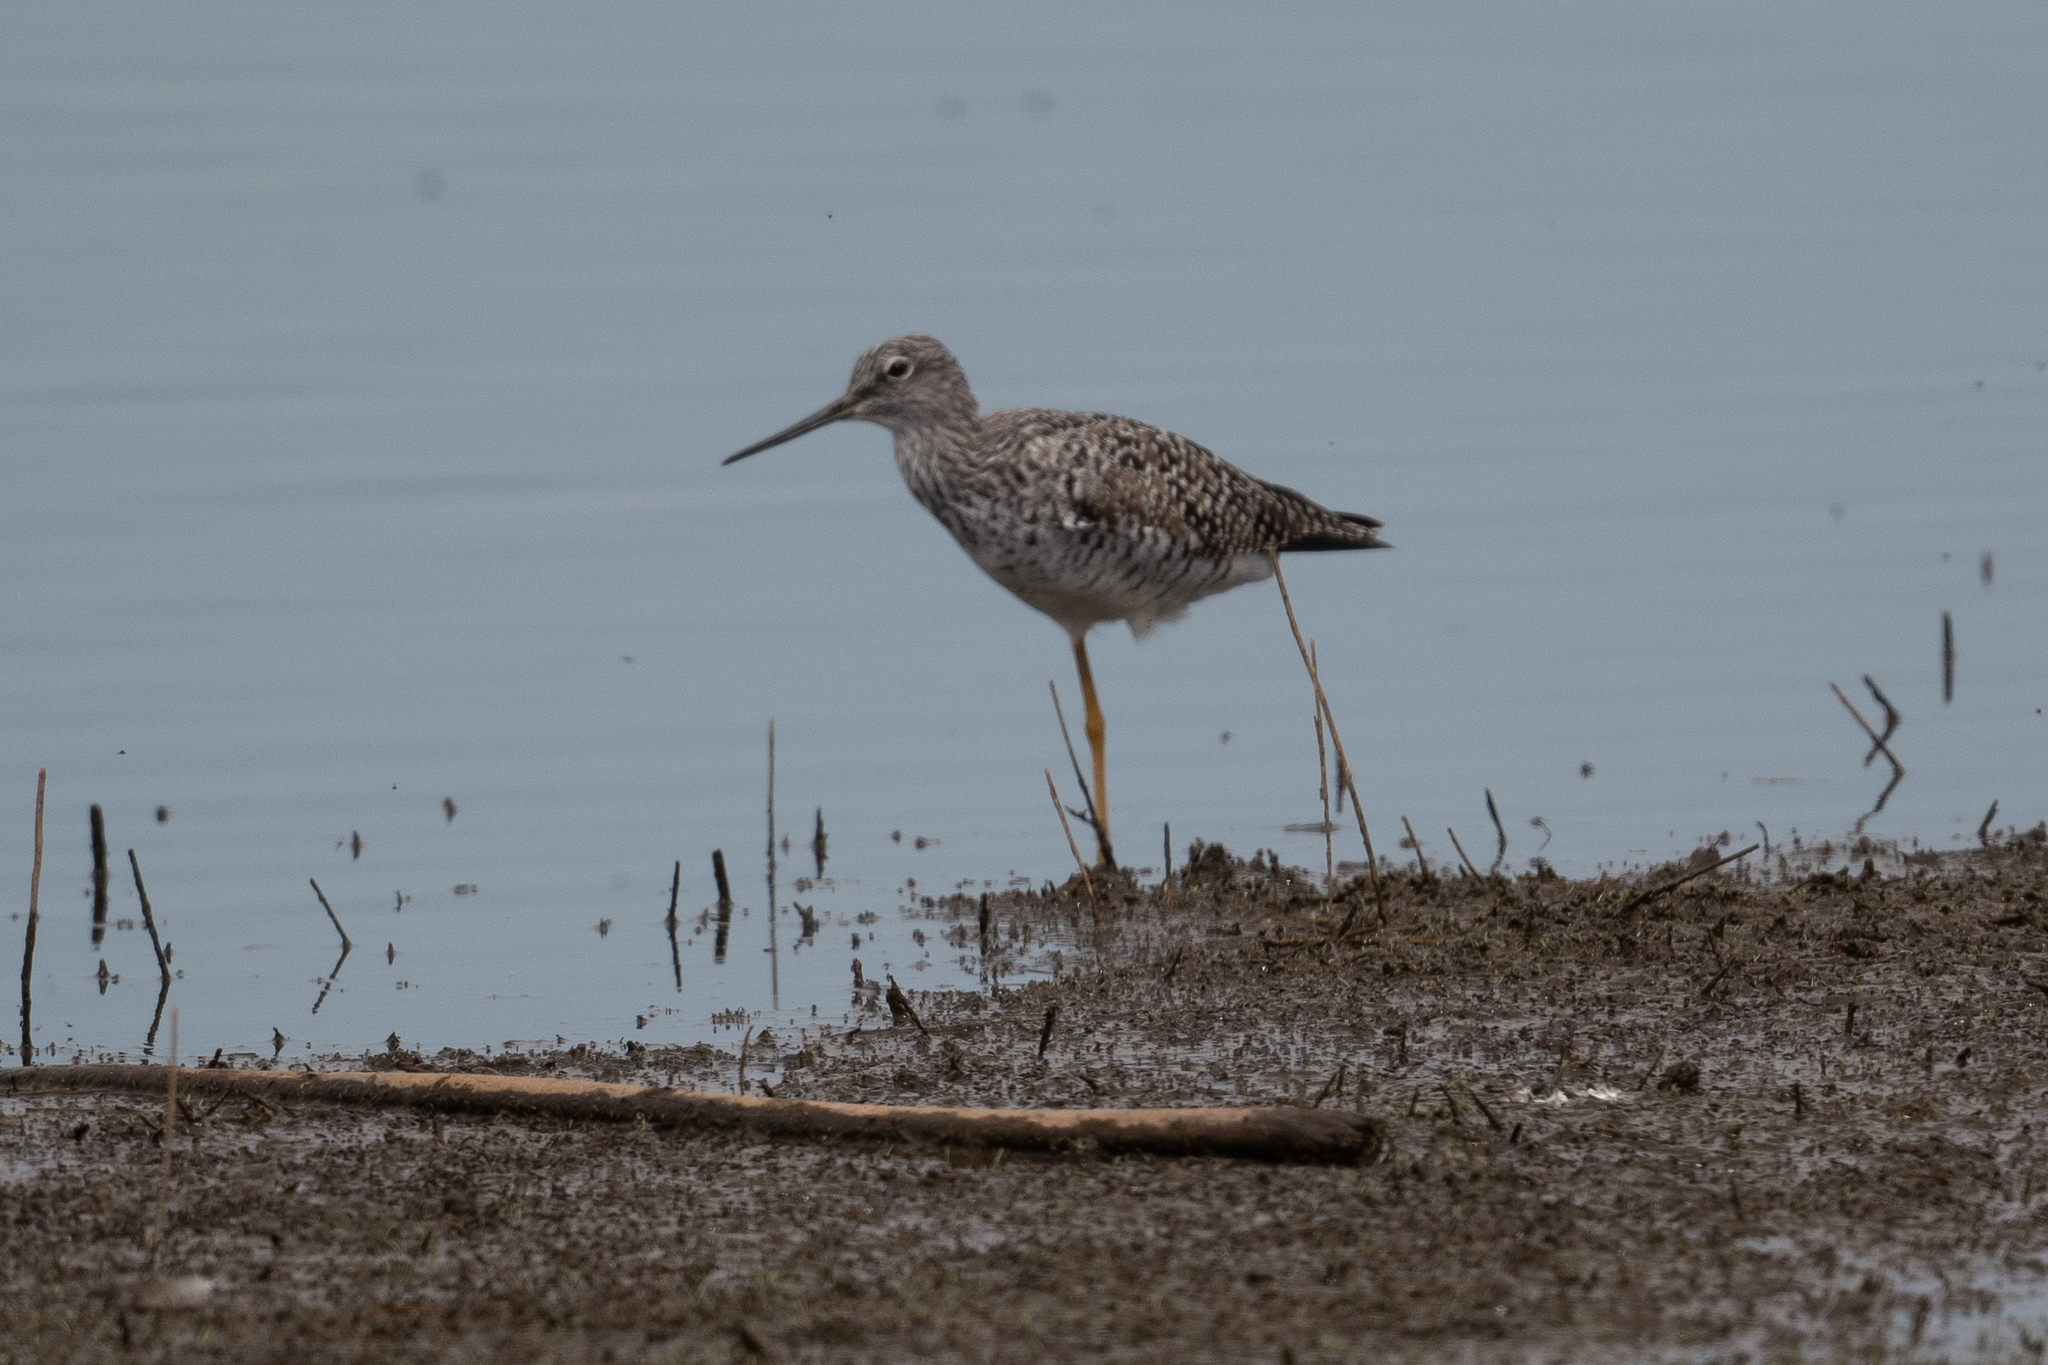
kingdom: Animalia
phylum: Chordata
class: Aves
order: Charadriiformes
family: Scolopacidae
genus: Tringa
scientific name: Tringa melanoleuca
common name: Greater yellowlegs
